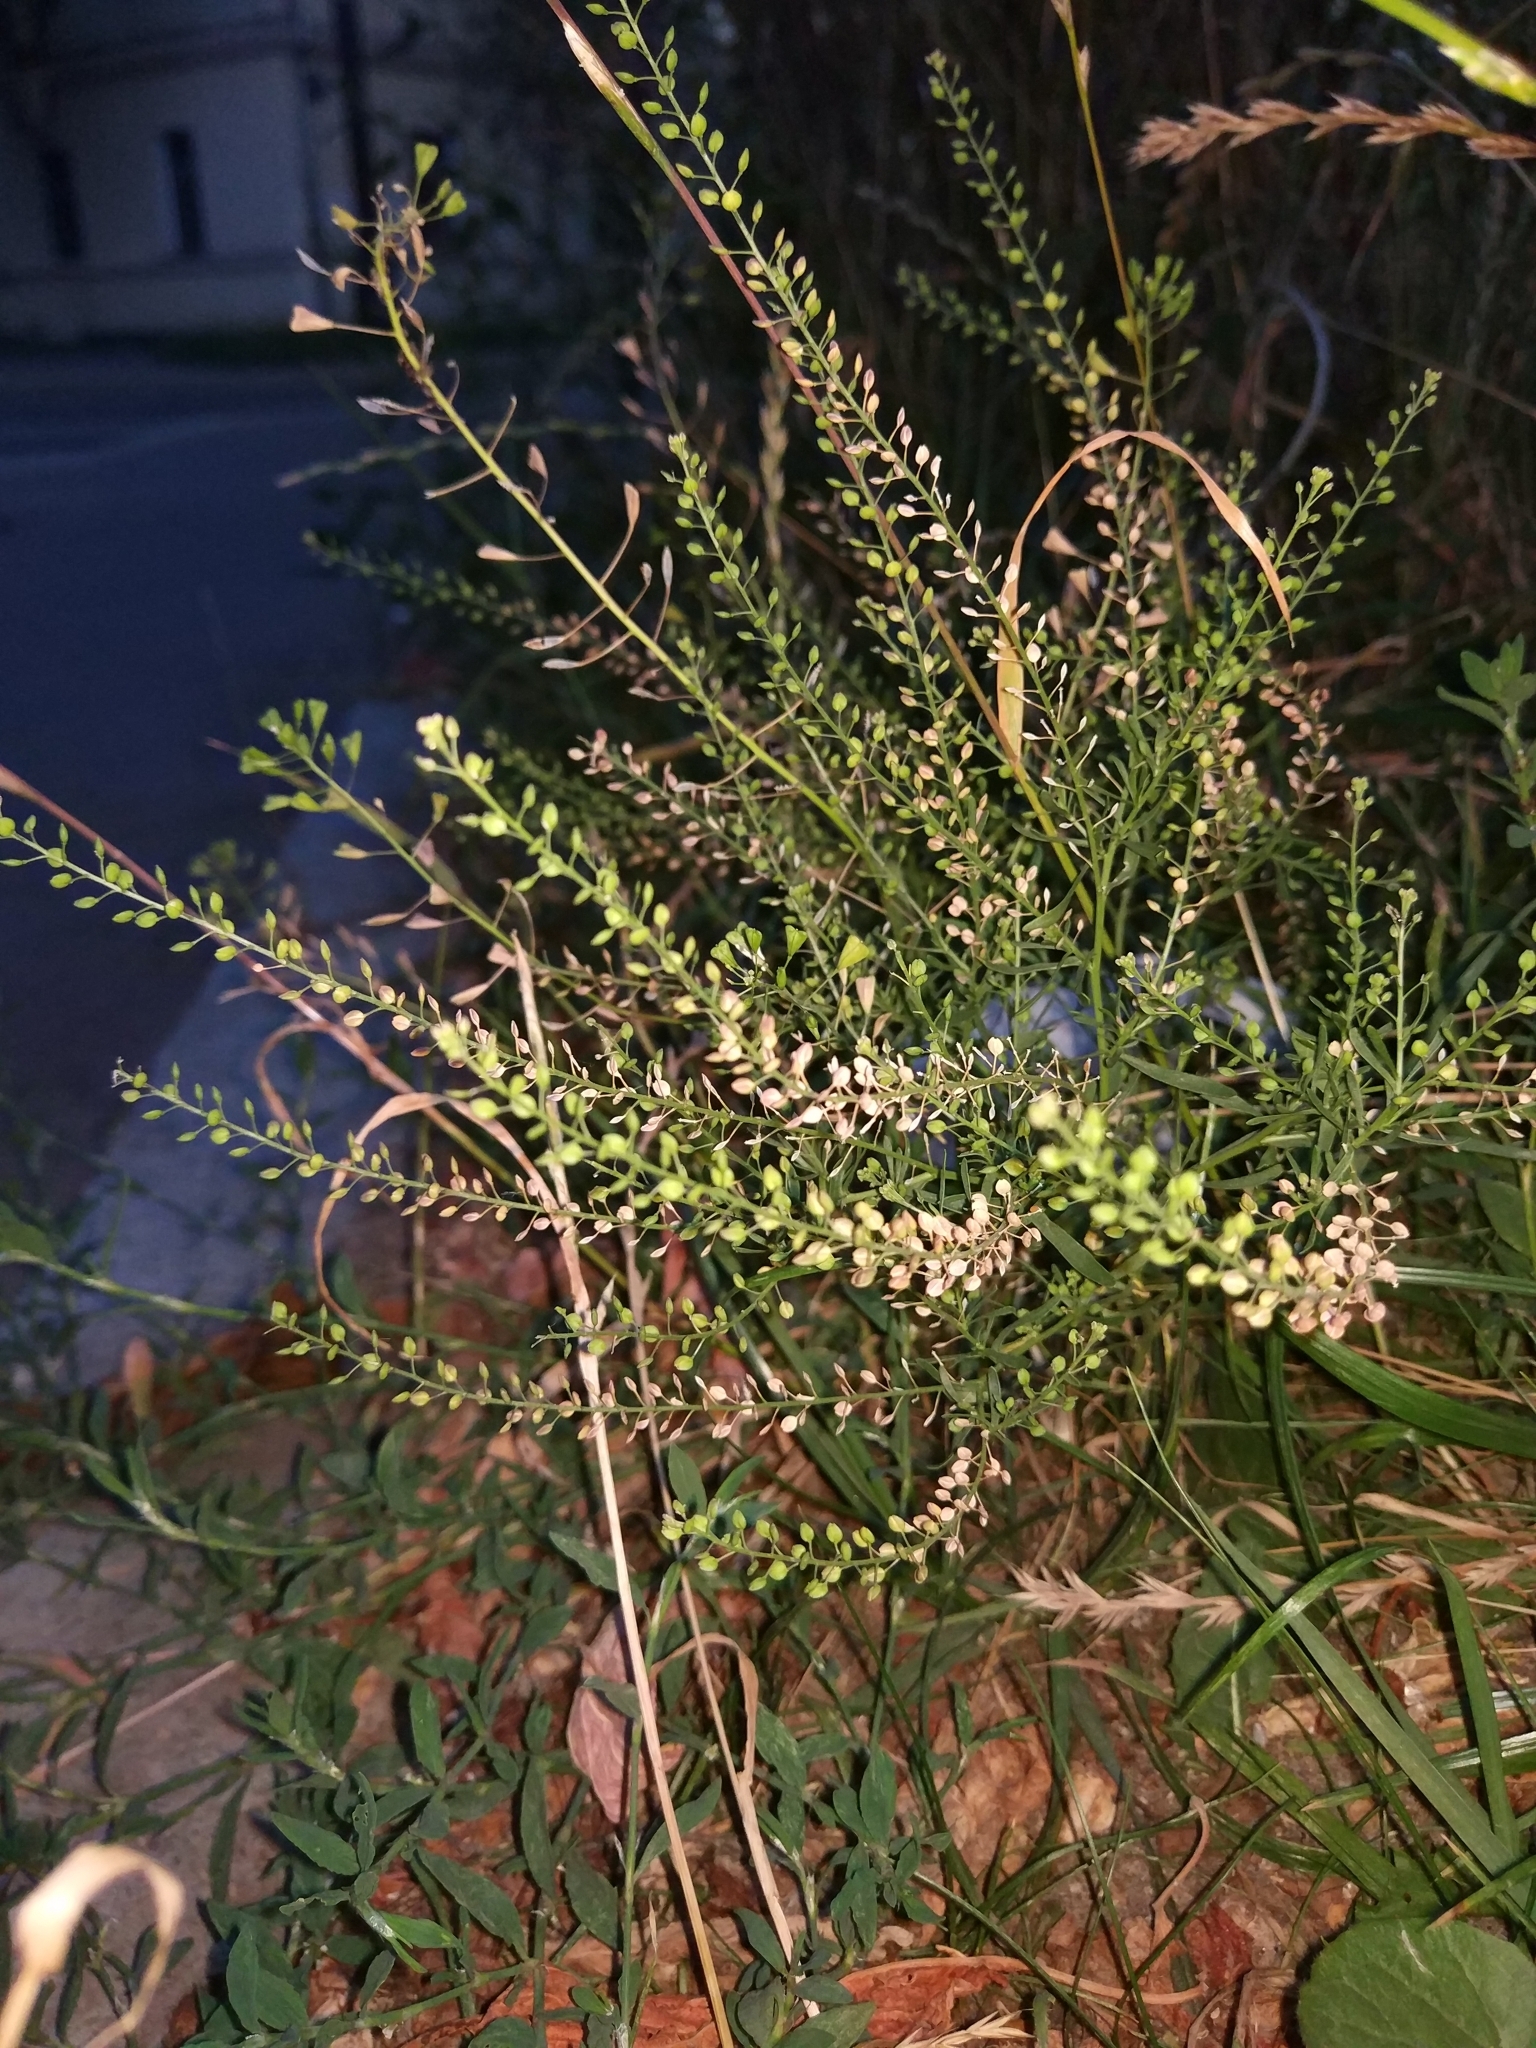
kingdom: Plantae
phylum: Tracheophyta
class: Magnoliopsida
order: Brassicales
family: Brassicaceae
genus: Lepidium
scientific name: Lepidium ruderale
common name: Narrow-leaved pepperwort
